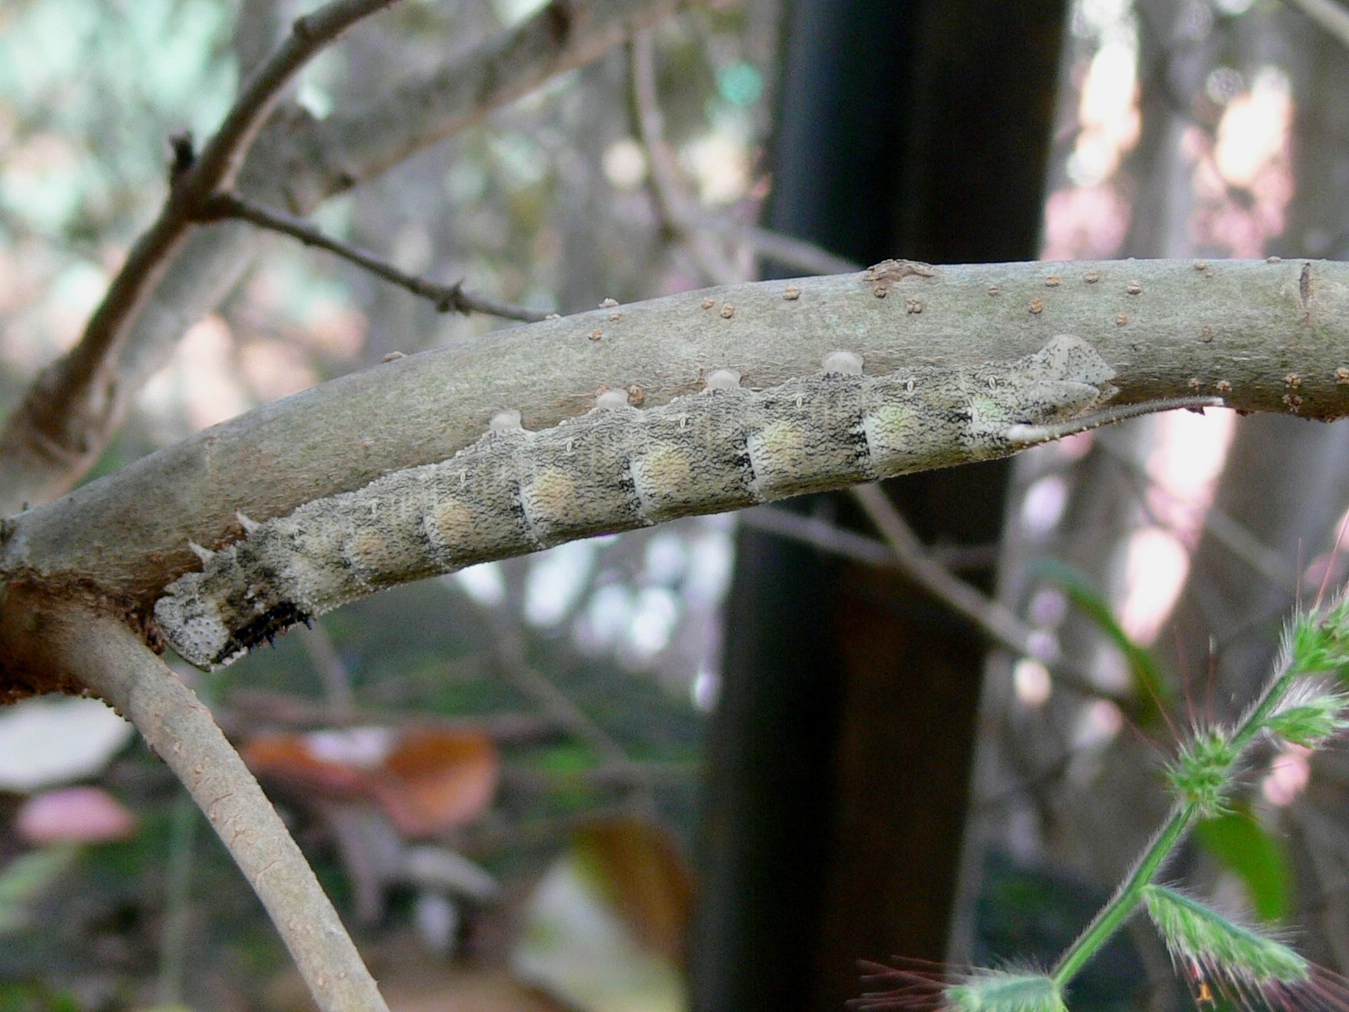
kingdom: Animalia
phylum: Arthropoda
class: Insecta
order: Lepidoptera
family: Sphingidae
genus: Panogena
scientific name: Panogena jasmini
